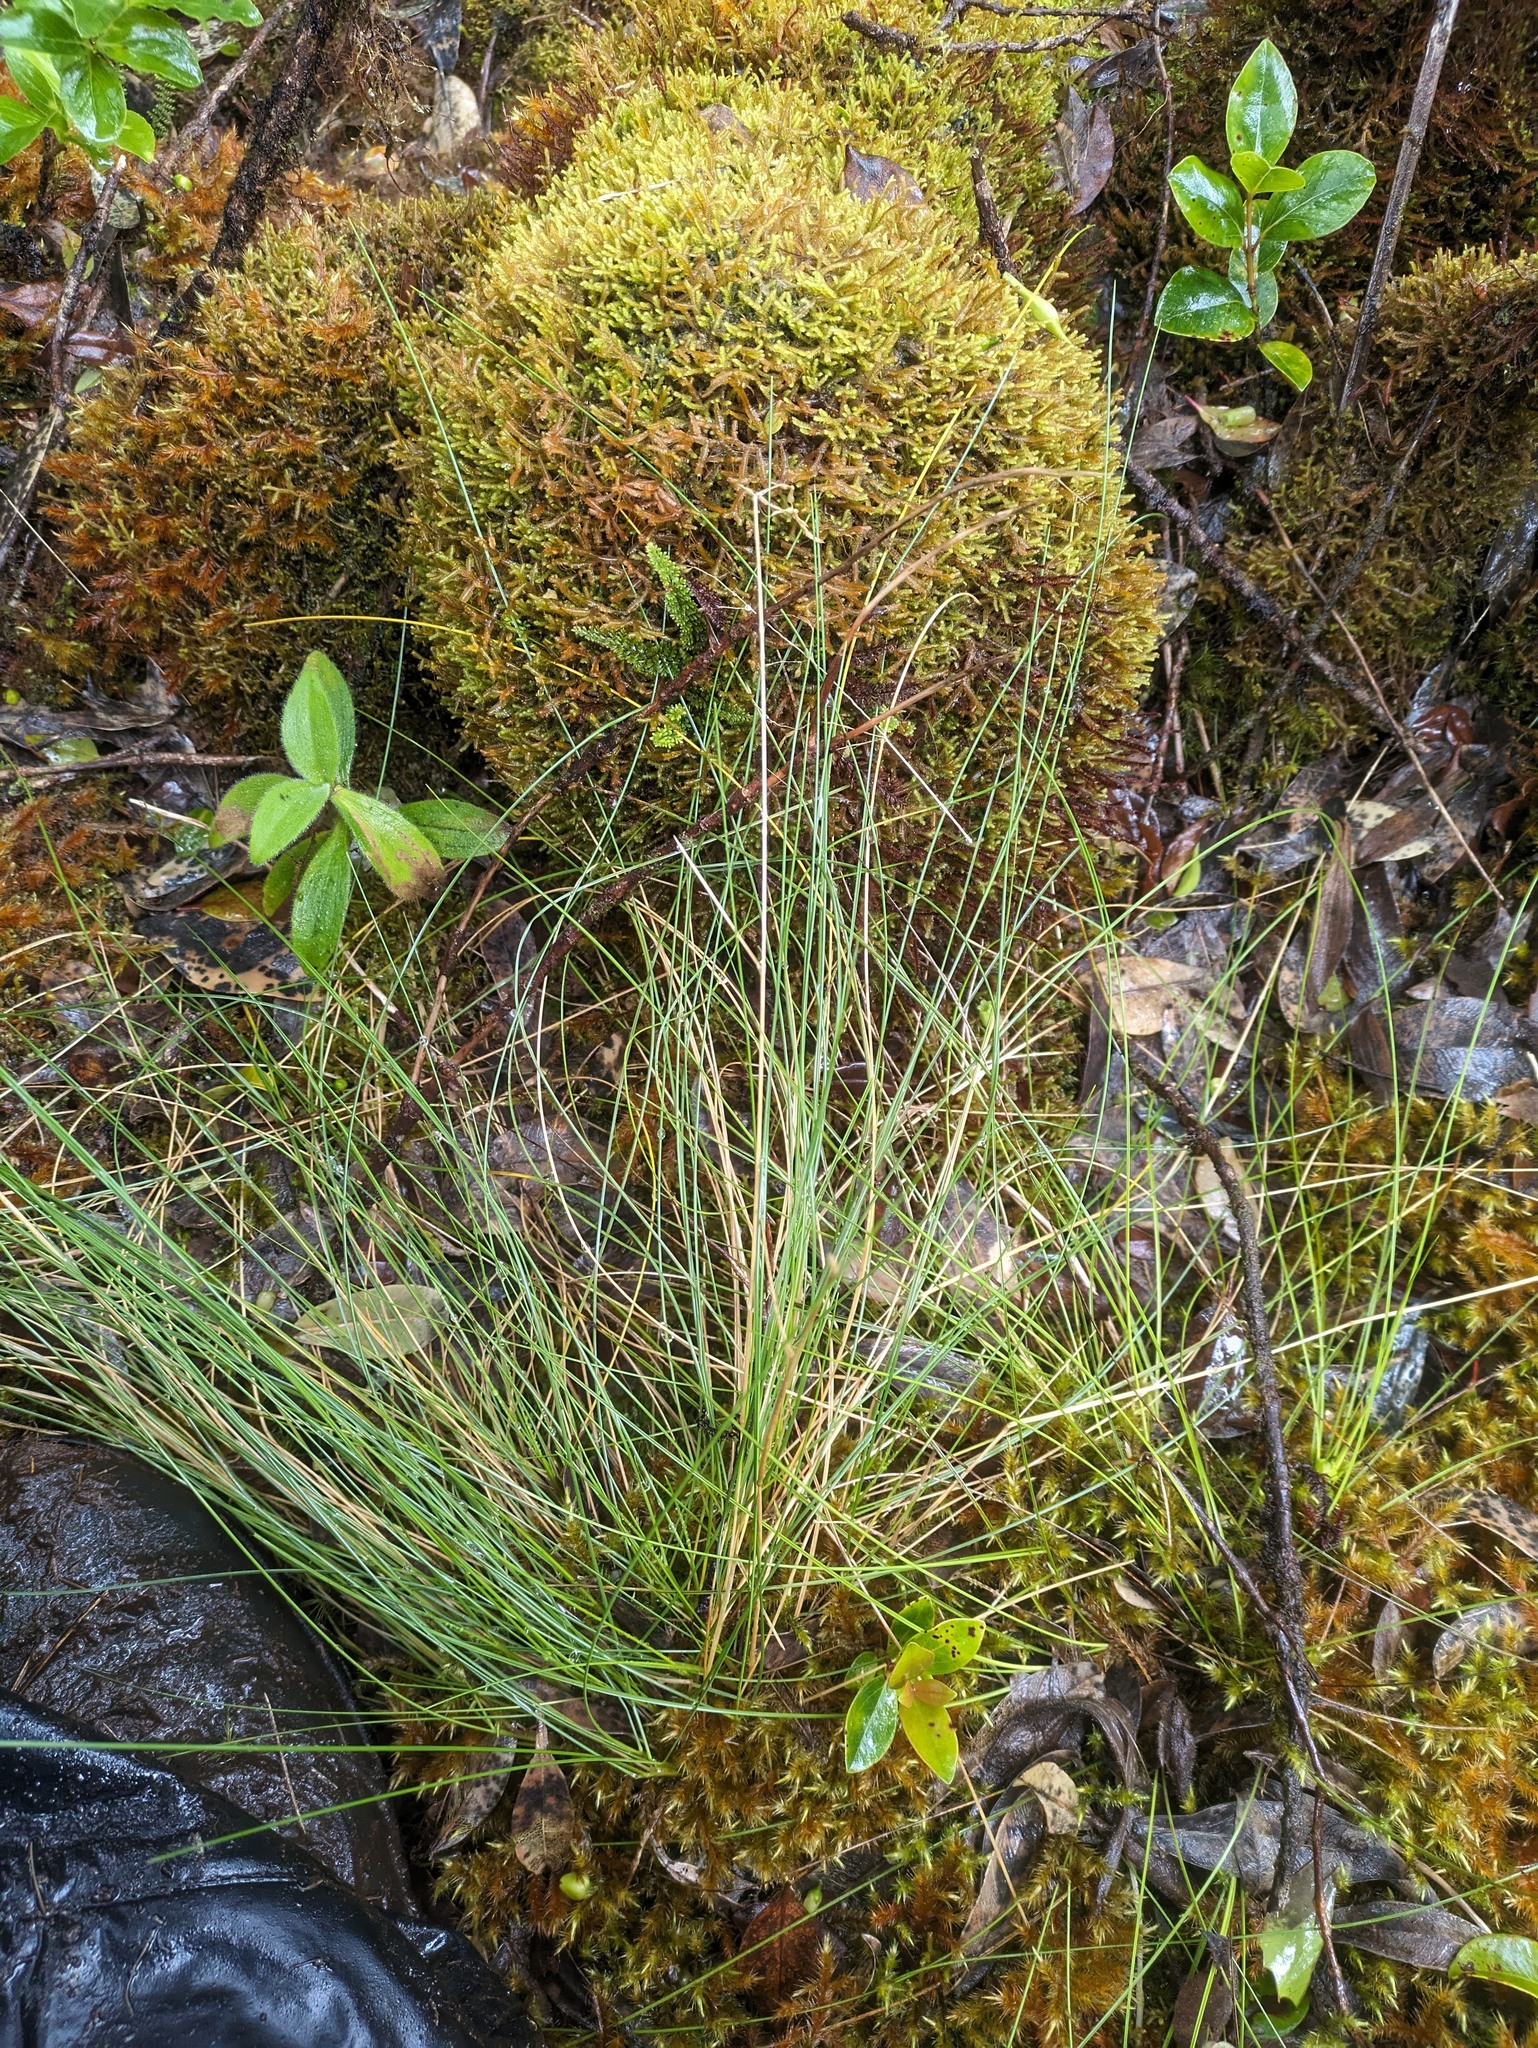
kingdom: Plantae
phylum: Tracheophyta
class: Liliopsida
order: Poales
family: Poaceae
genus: Deschampsia
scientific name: Deschampsia nubigena
